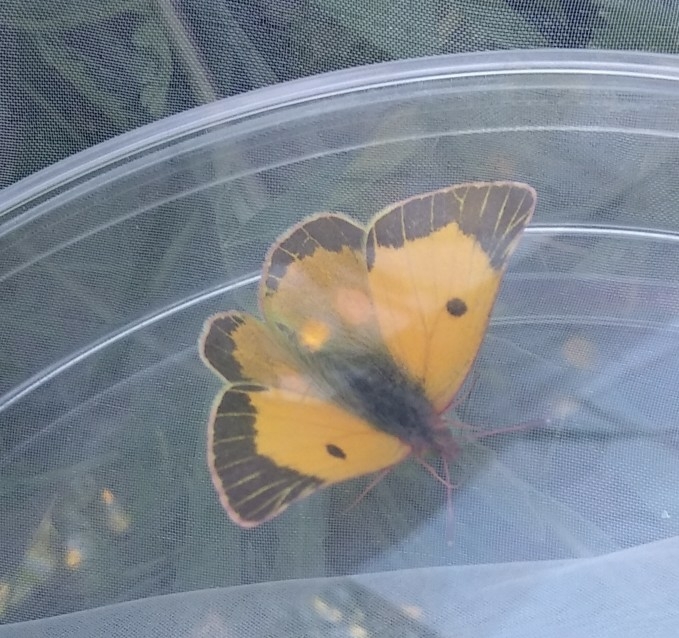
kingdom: Animalia
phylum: Arthropoda
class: Insecta
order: Lepidoptera
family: Pieridae
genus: Colias
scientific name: Colias croceus
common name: Clouded yellow
